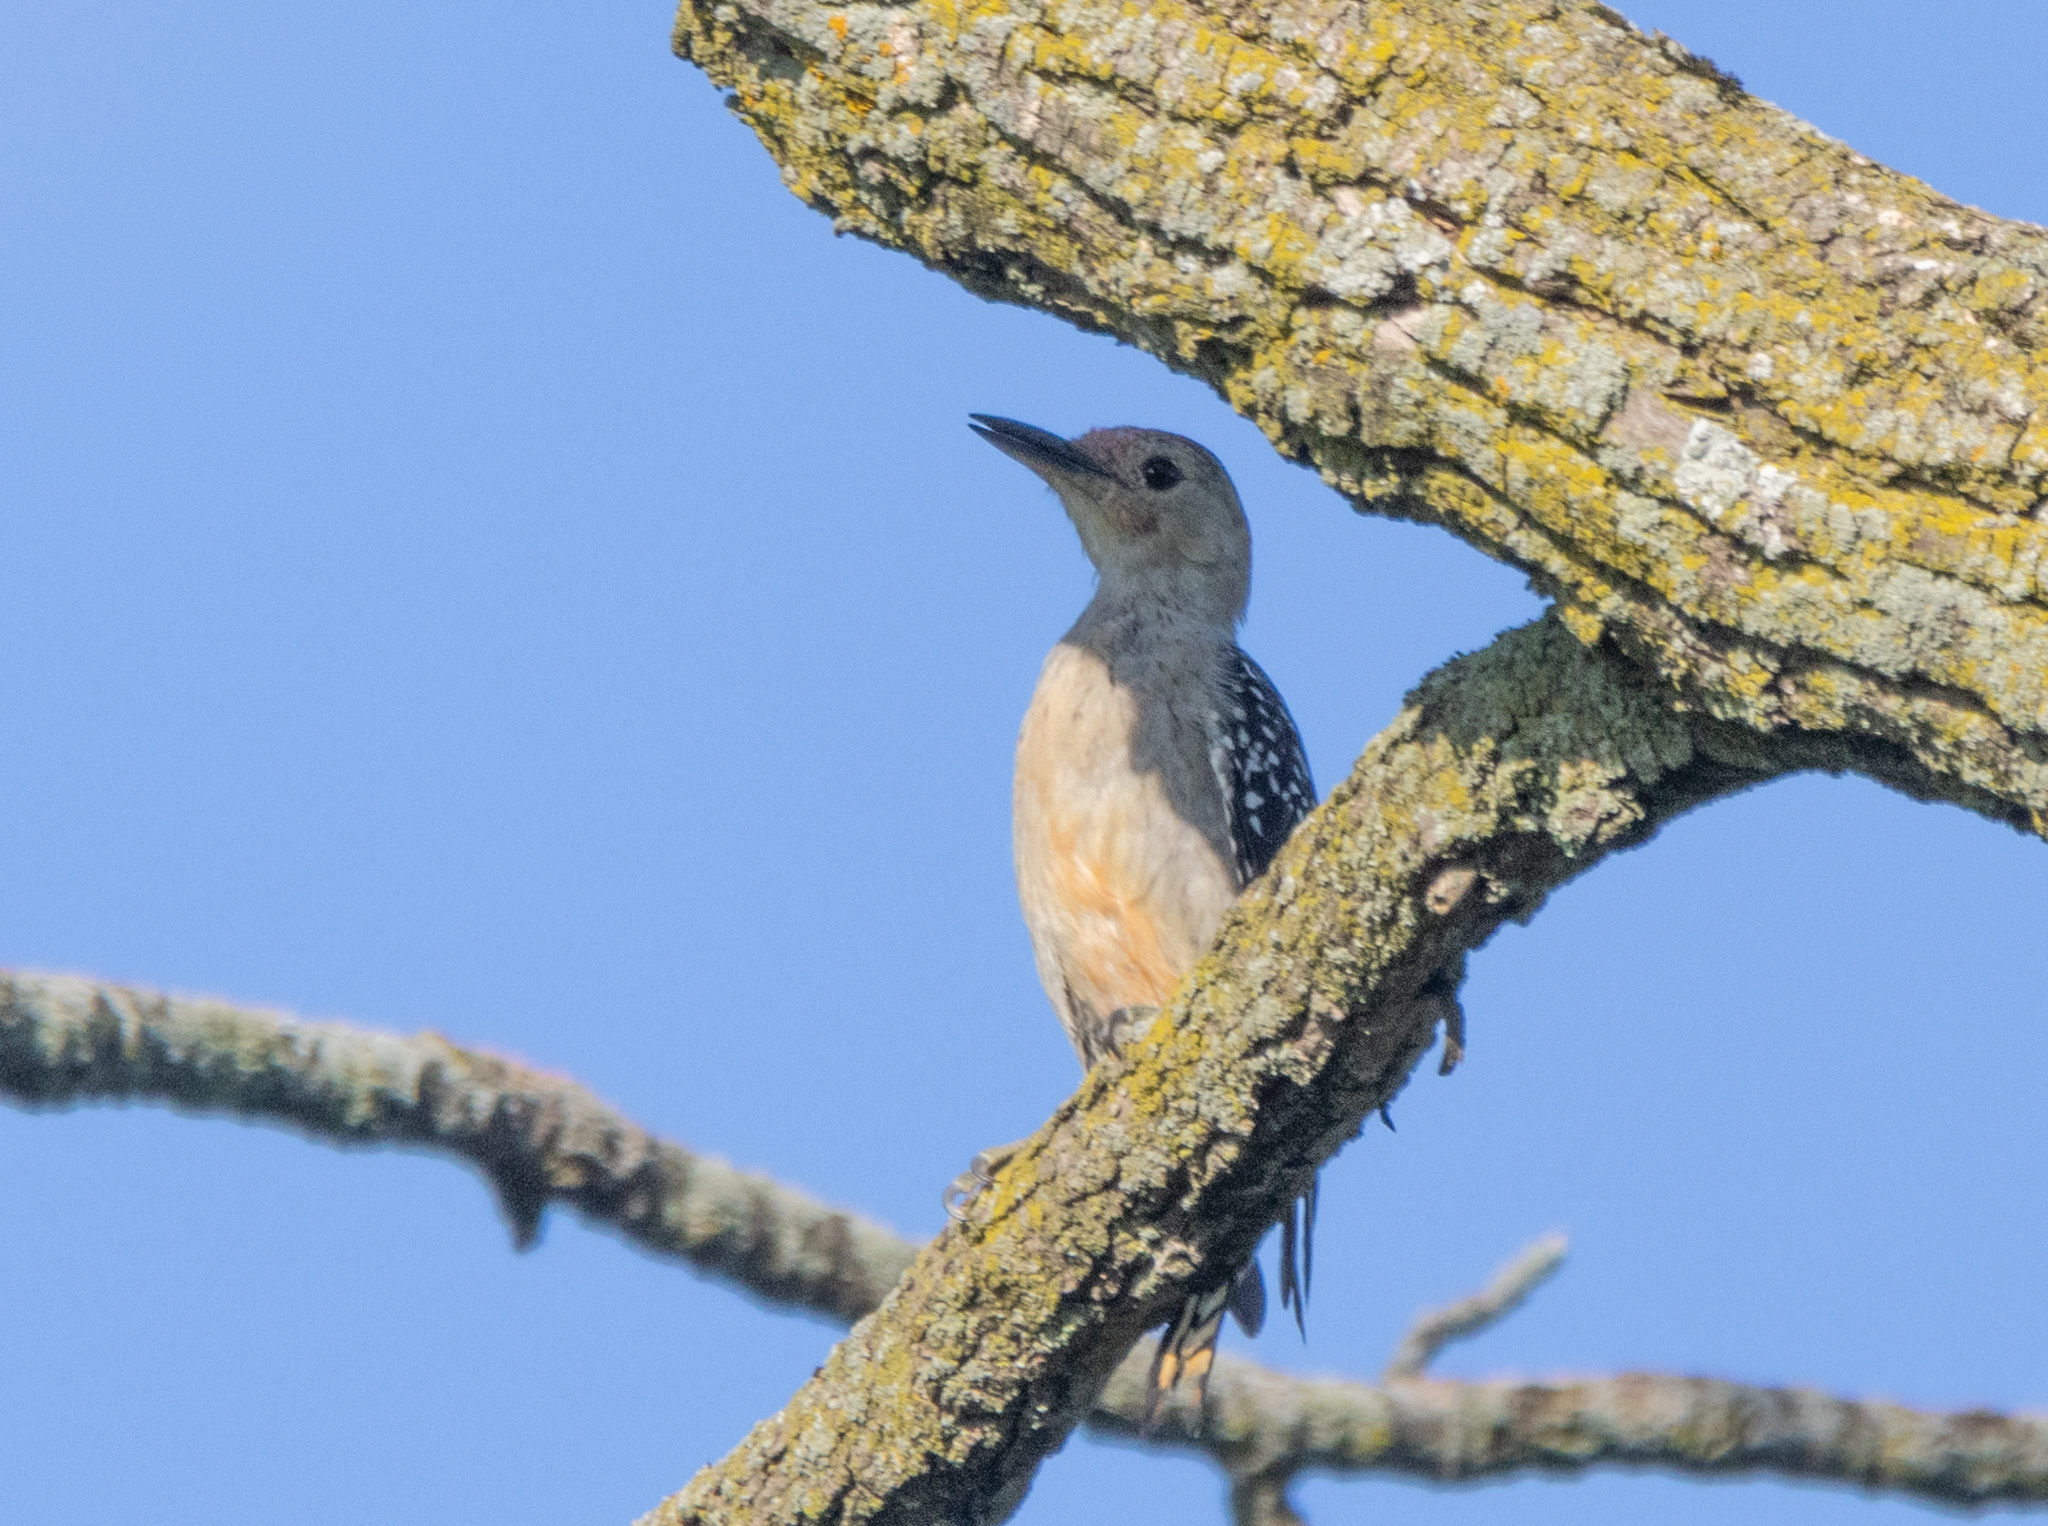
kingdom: Animalia
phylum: Chordata
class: Aves
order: Piciformes
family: Picidae
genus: Melanerpes
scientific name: Melanerpes carolinus
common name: Red-bellied woodpecker
